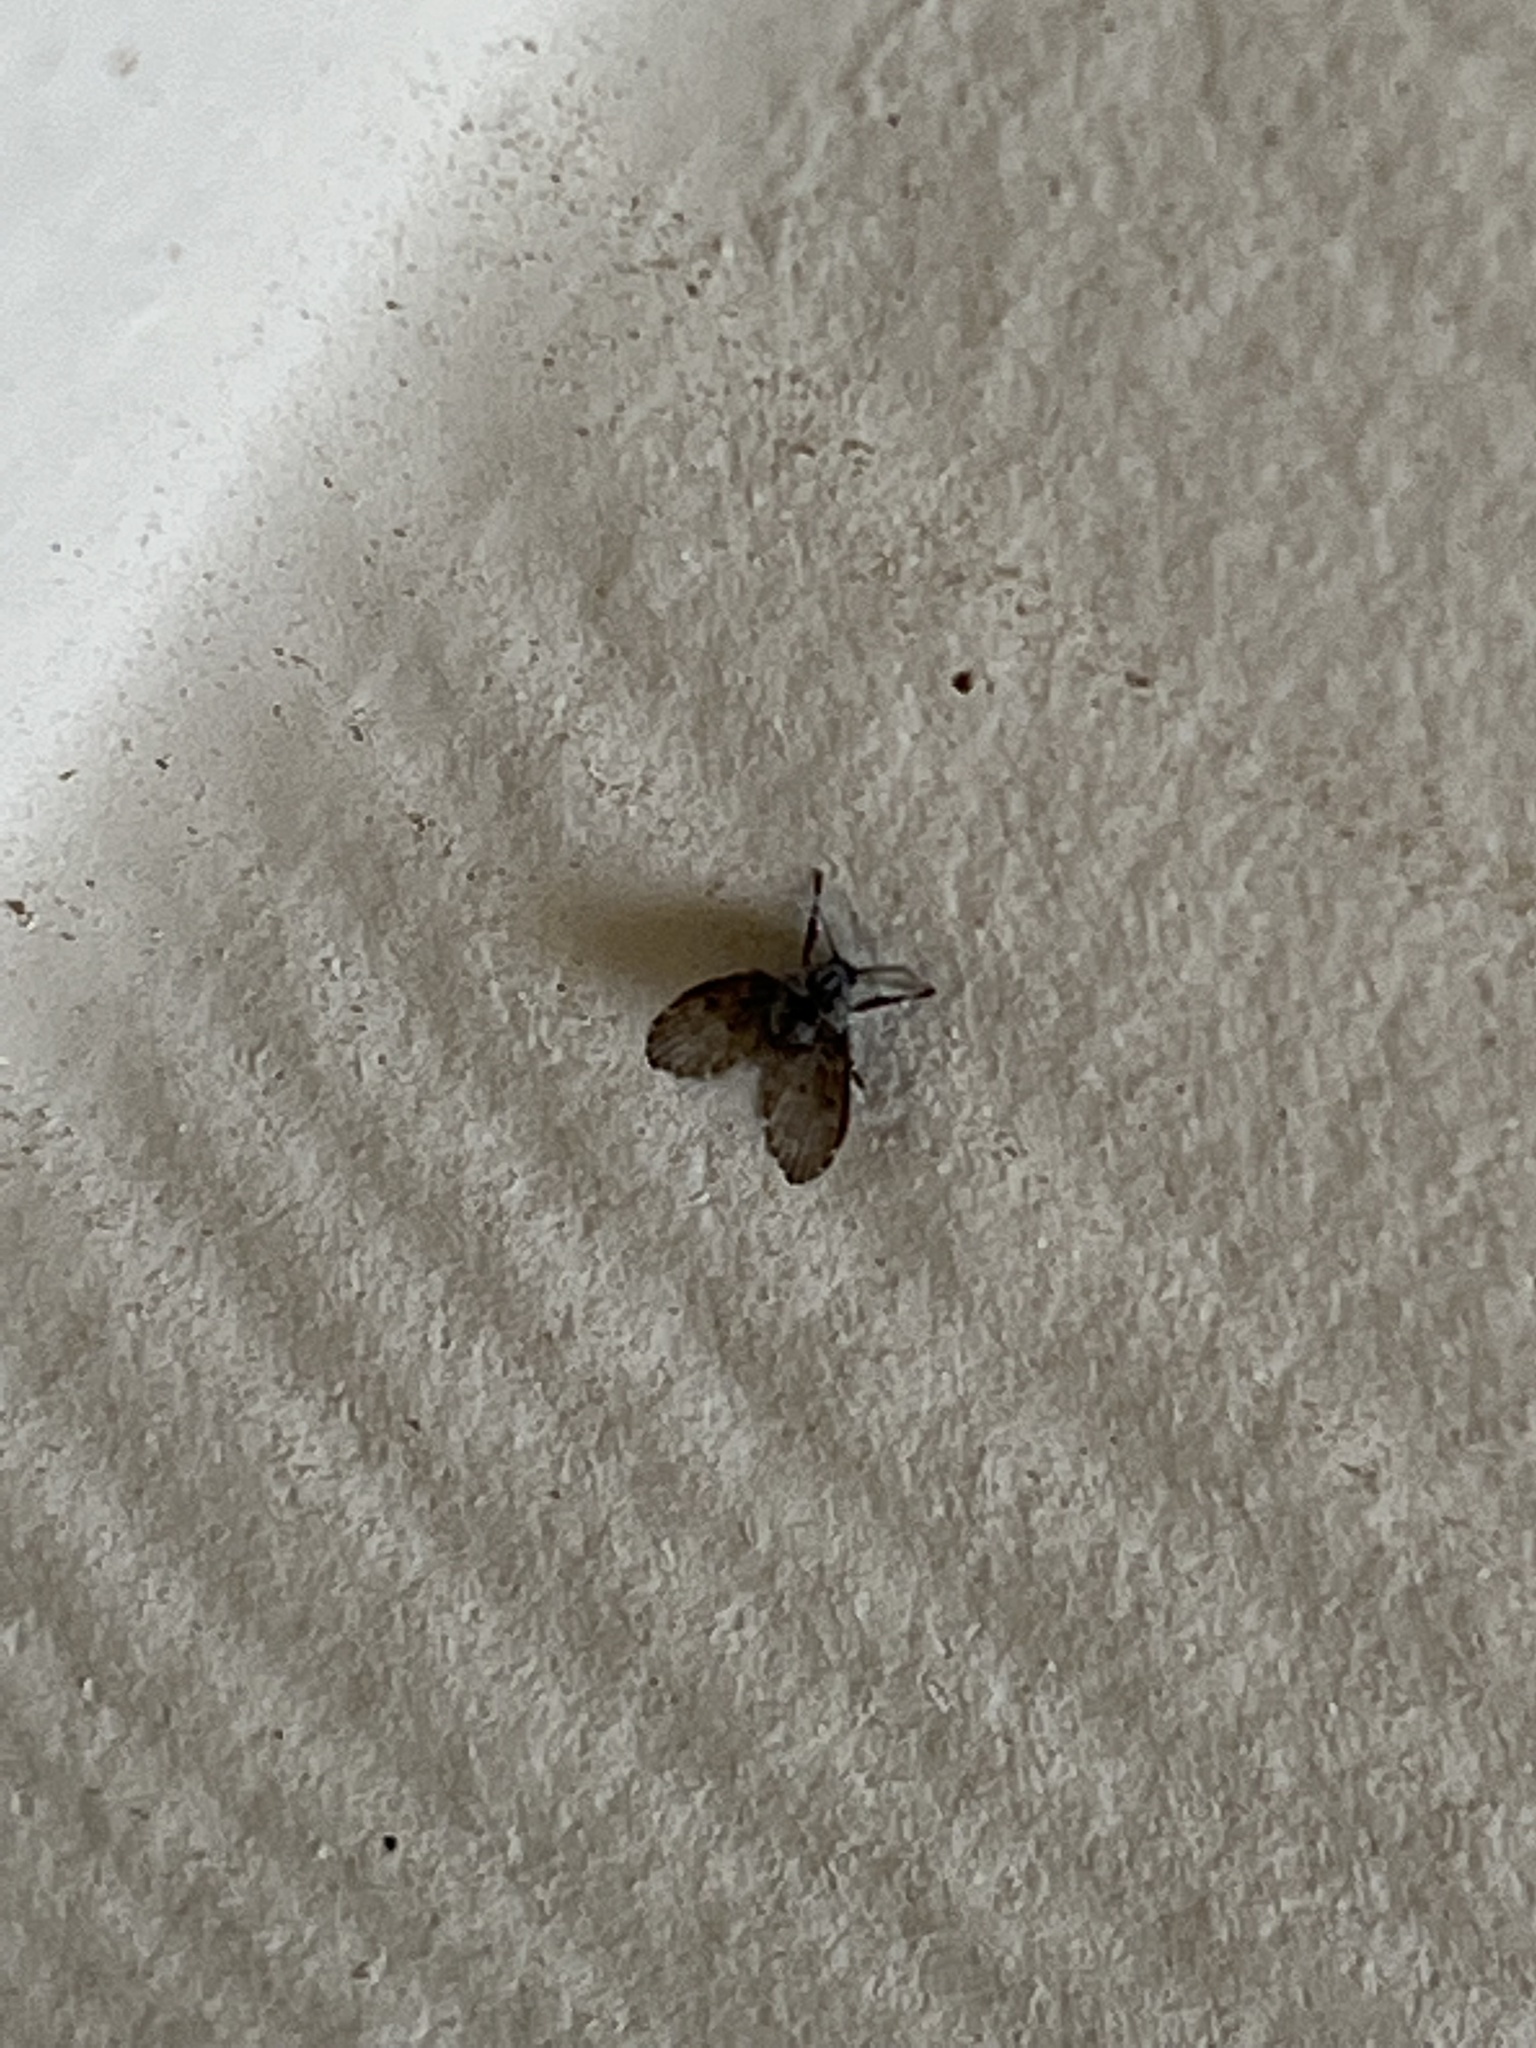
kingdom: Animalia
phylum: Arthropoda
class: Insecta
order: Diptera
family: Psychodidae
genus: Clogmia
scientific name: Clogmia albipunctatus
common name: White-spotted moth fly
